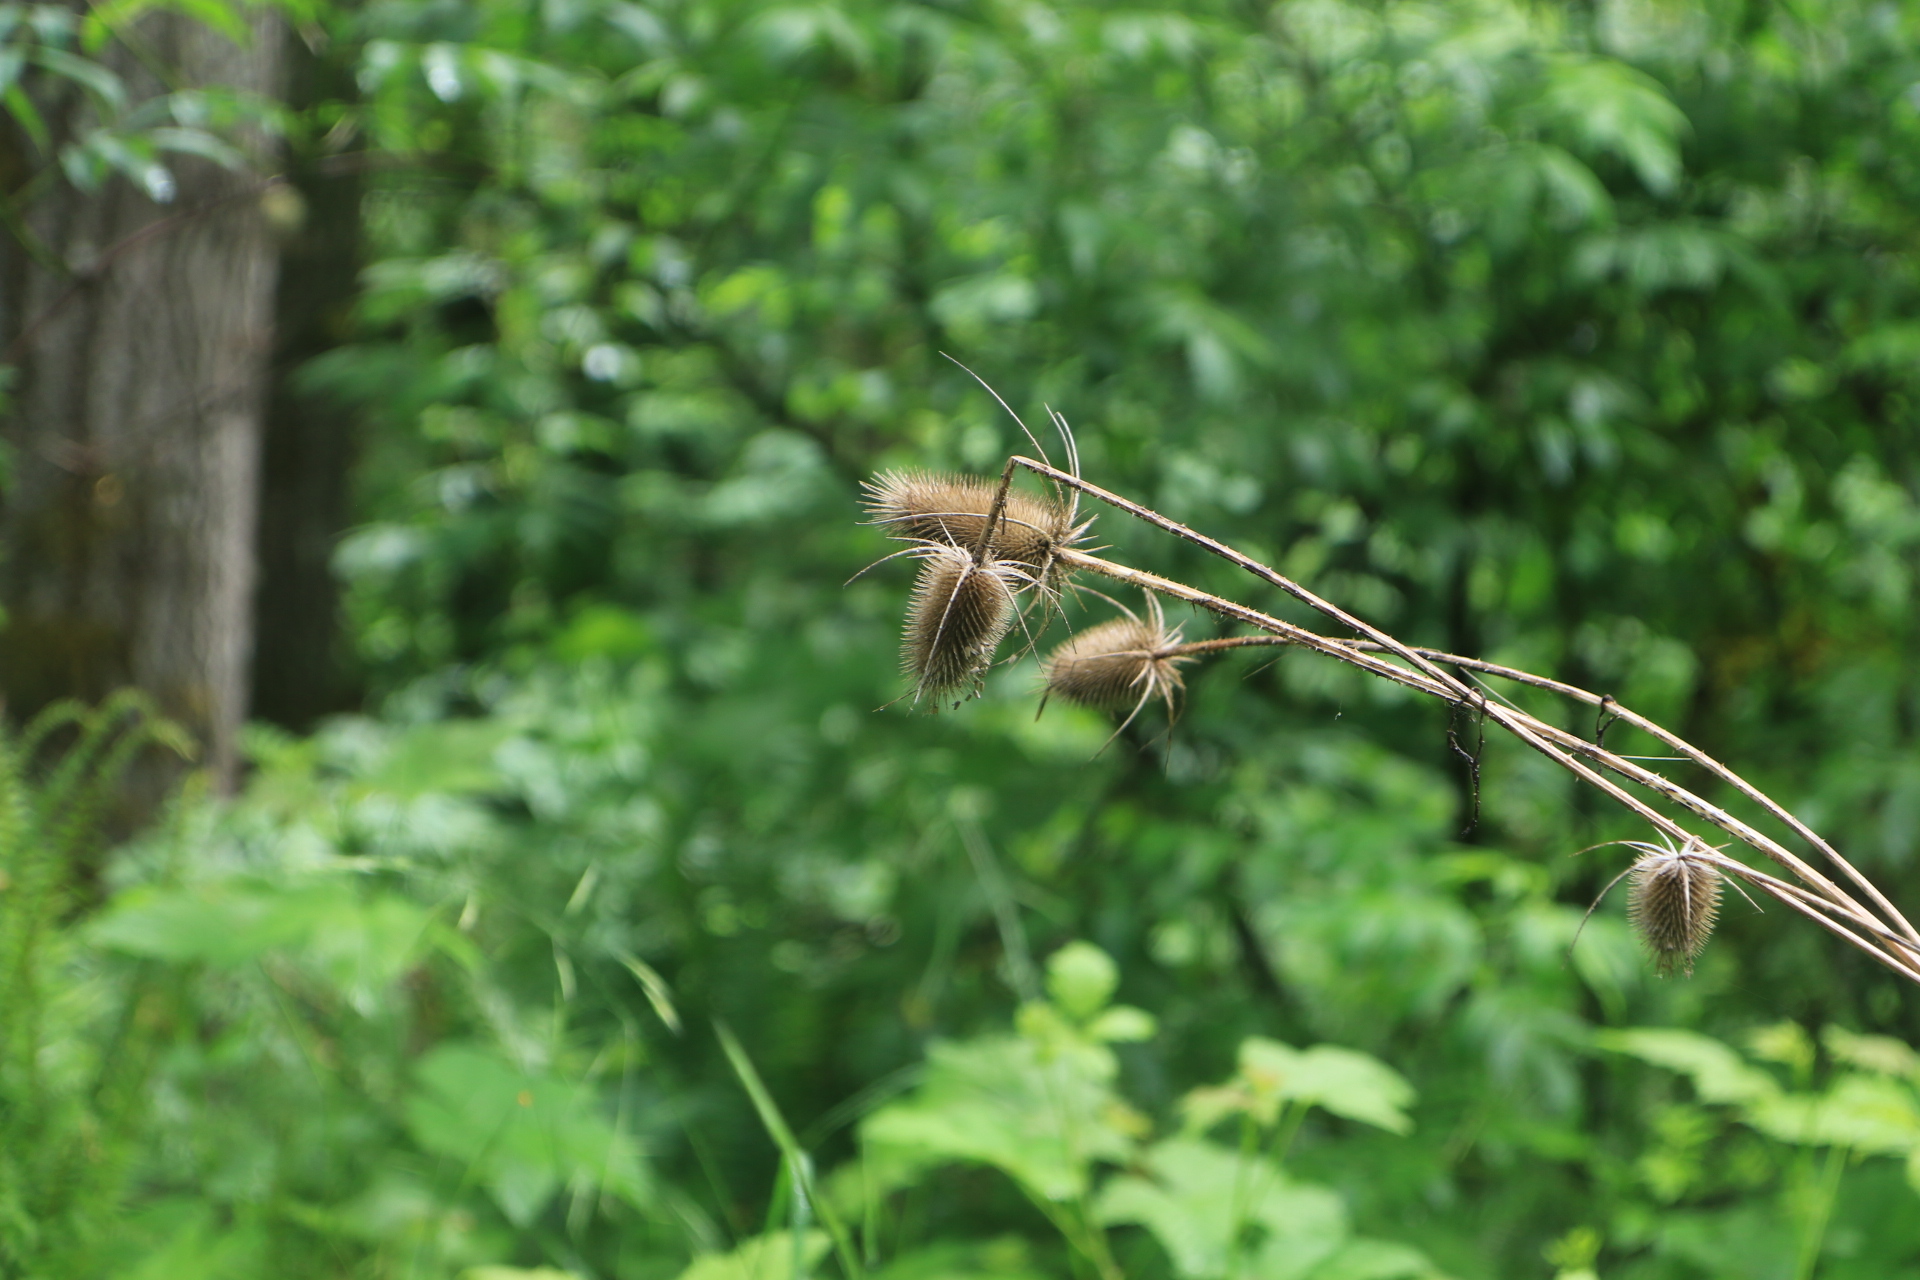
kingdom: Plantae
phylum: Tracheophyta
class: Magnoliopsida
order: Dipsacales
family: Caprifoliaceae
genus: Dipsacus
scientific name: Dipsacus fullonum
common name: Teasel
